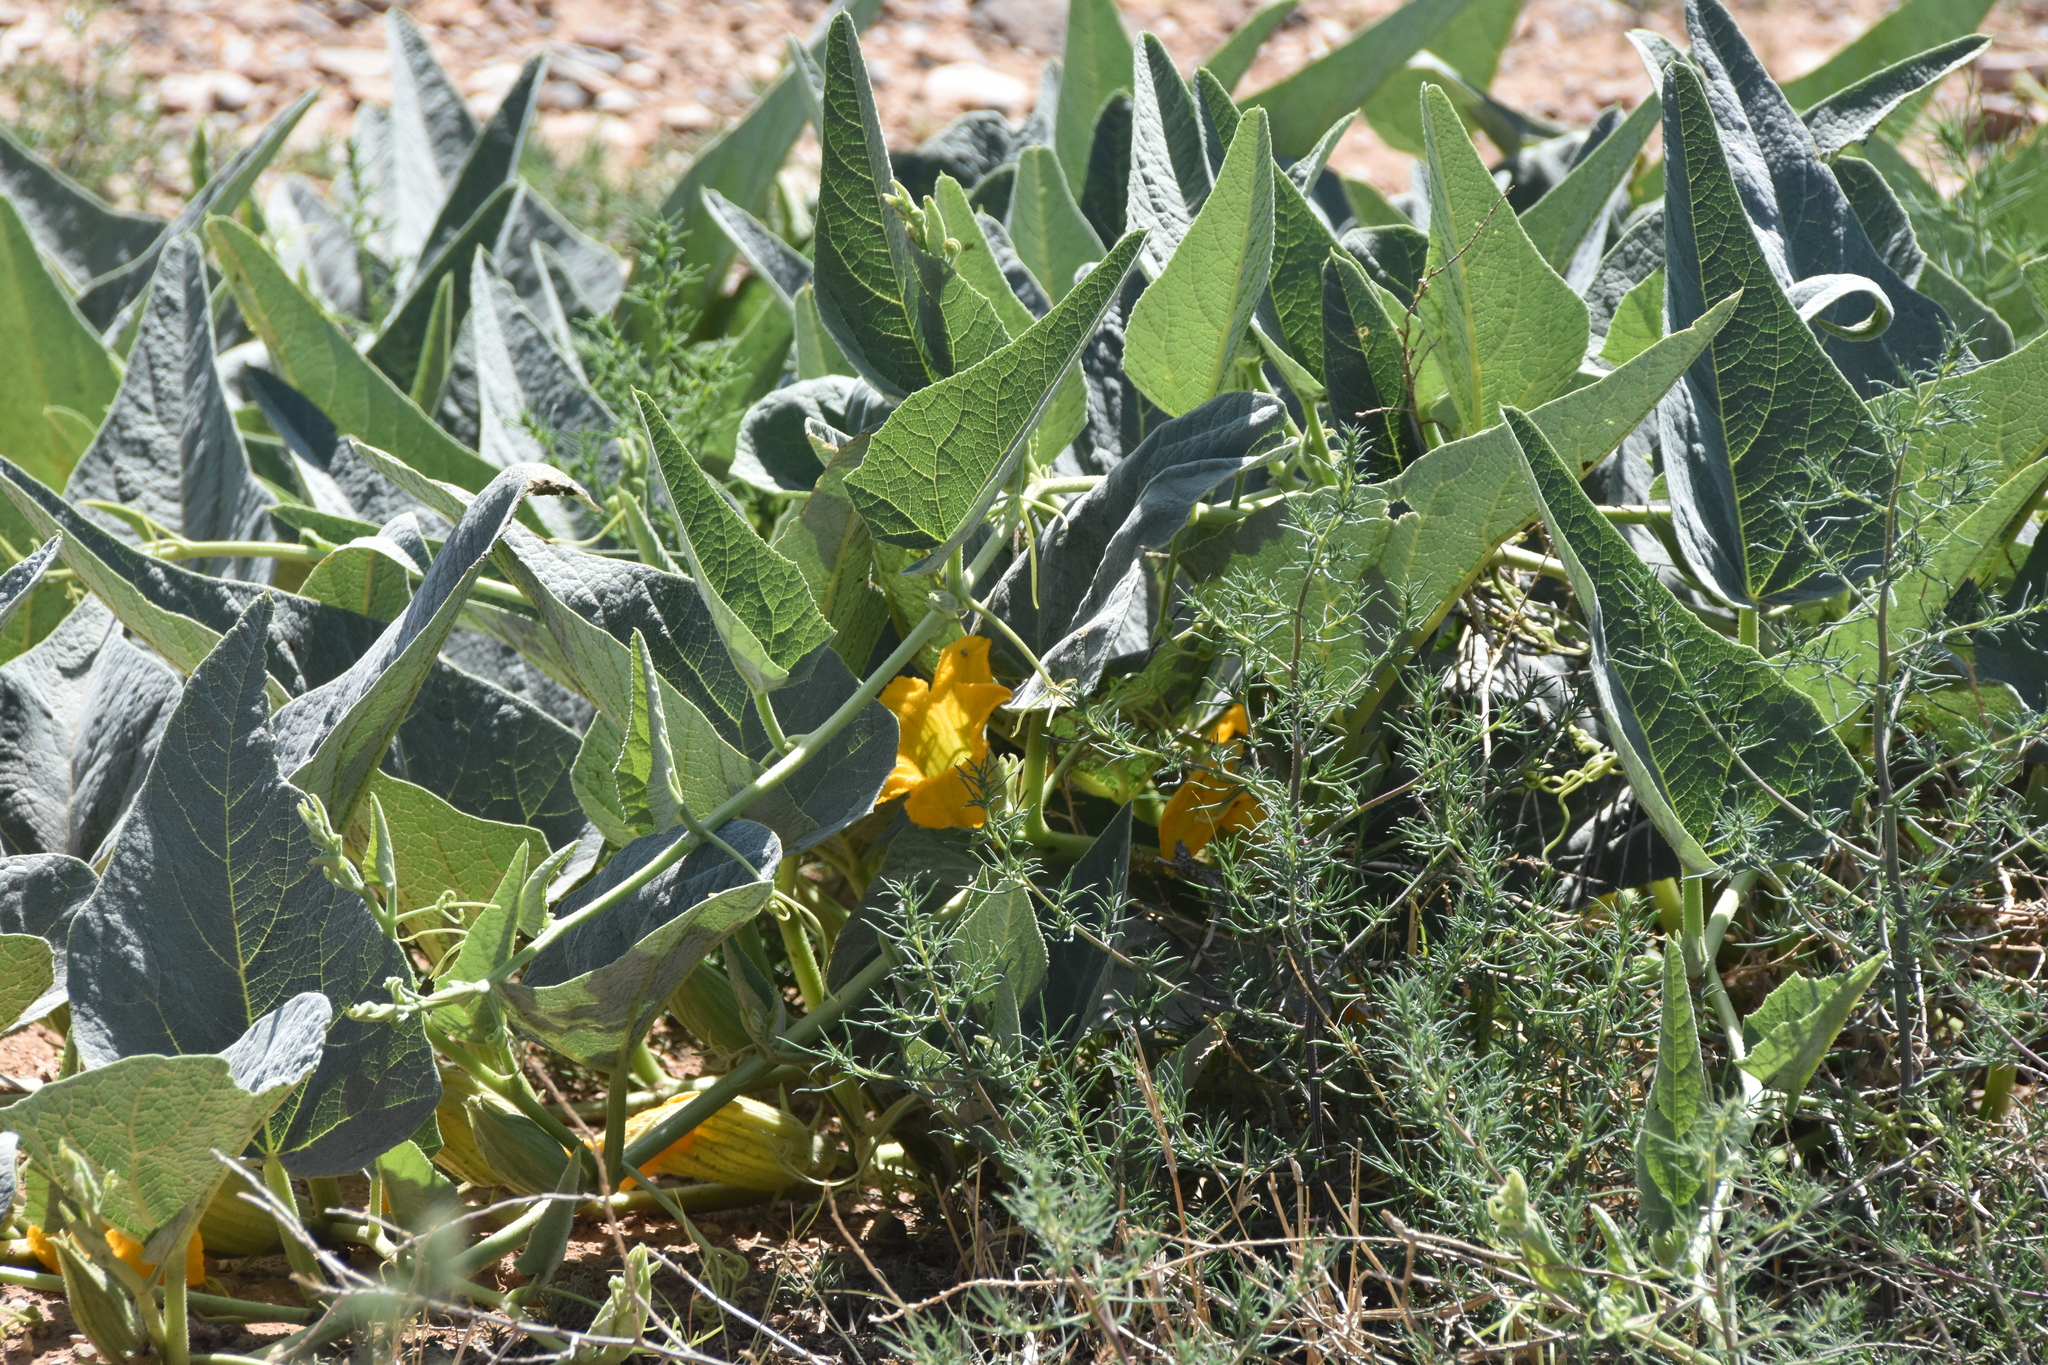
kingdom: Plantae
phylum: Tracheophyta
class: Magnoliopsida
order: Cucurbitales
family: Cucurbitaceae
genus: Cucurbita
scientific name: Cucurbita foetidissima
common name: Buffalo gourd
